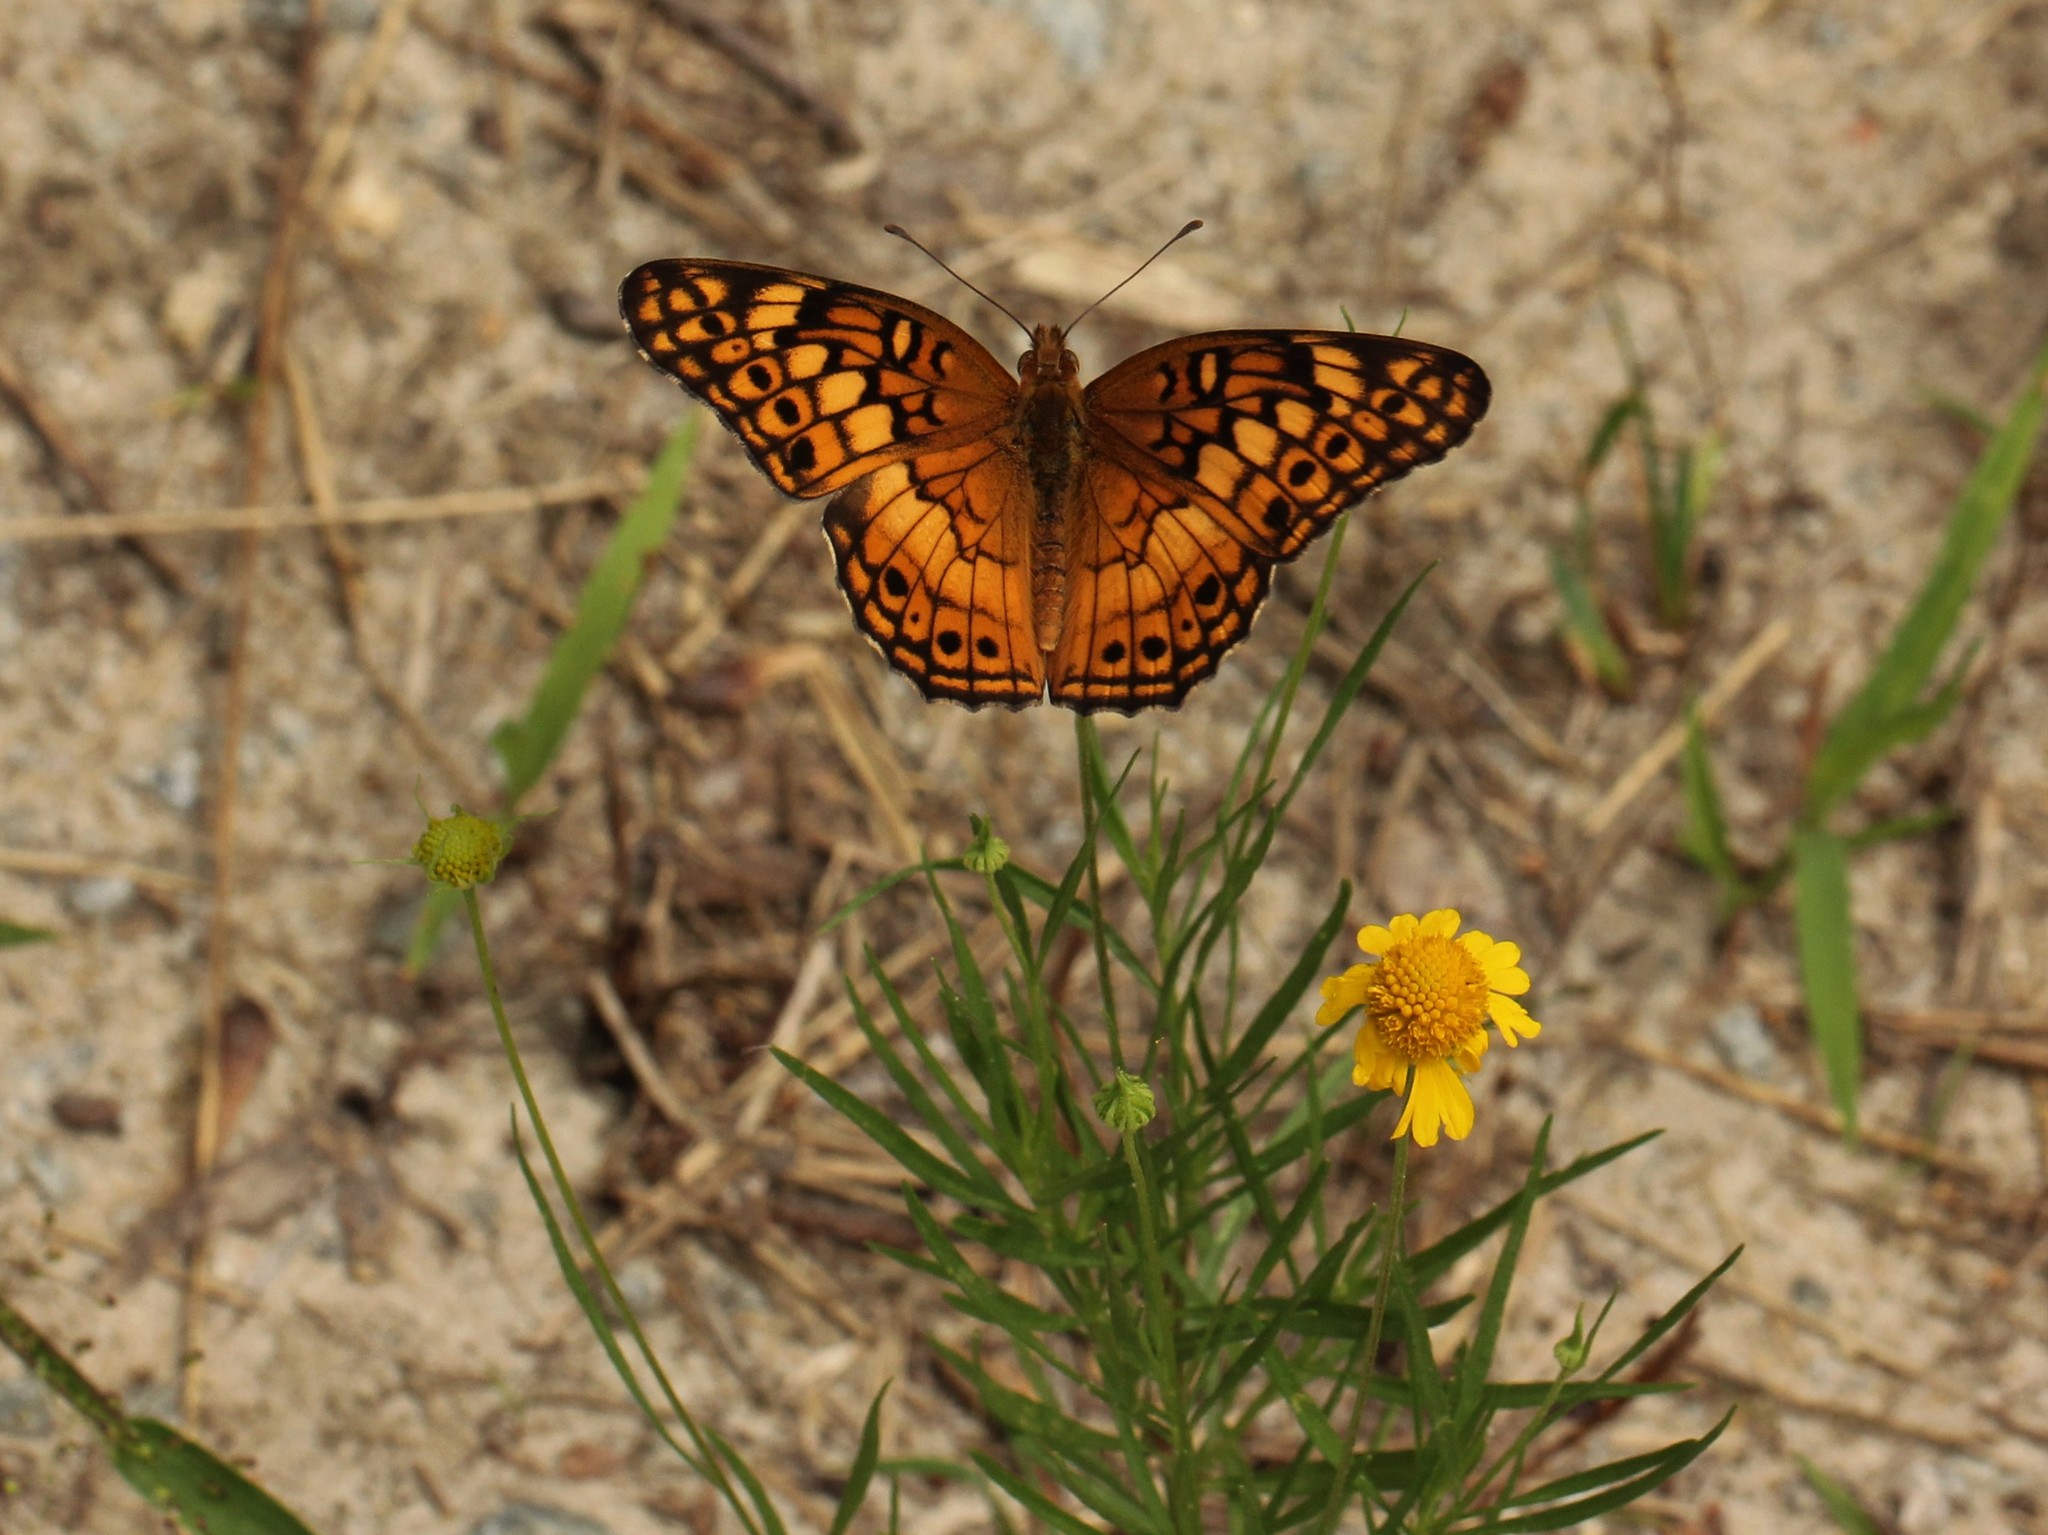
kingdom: Animalia
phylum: Arthropoda
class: Insecta
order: Lepidoptera
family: Nymphalidae
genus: Euptoieta
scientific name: Euptoieta claudia
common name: Variegated fritillary
